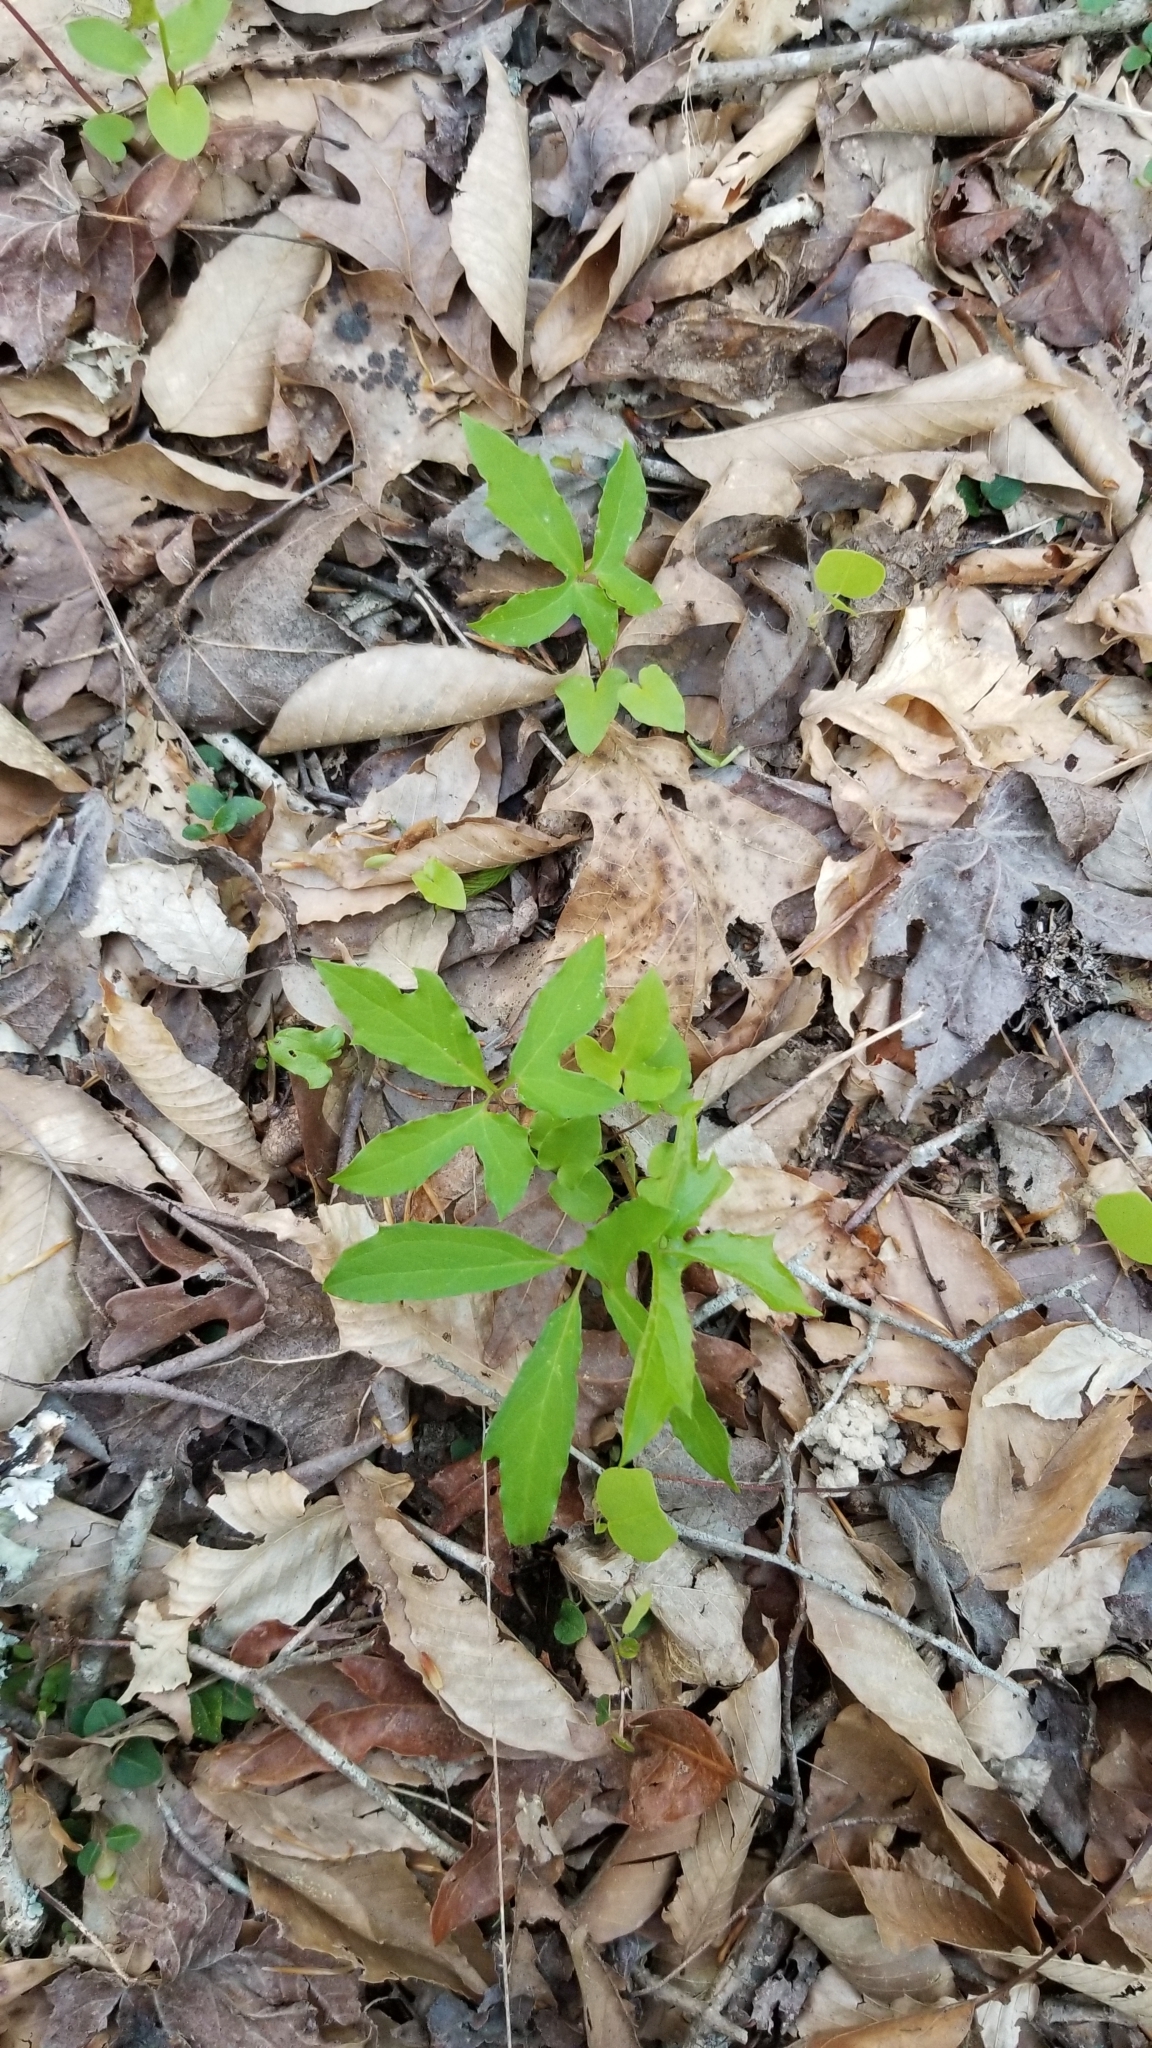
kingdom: Plantae
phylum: Tracheophyta
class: Magnoliopsida
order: Asterales
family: Asteraceae
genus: Nabalus
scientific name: Nabalus altissima
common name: Tall rattlesnakeroot
